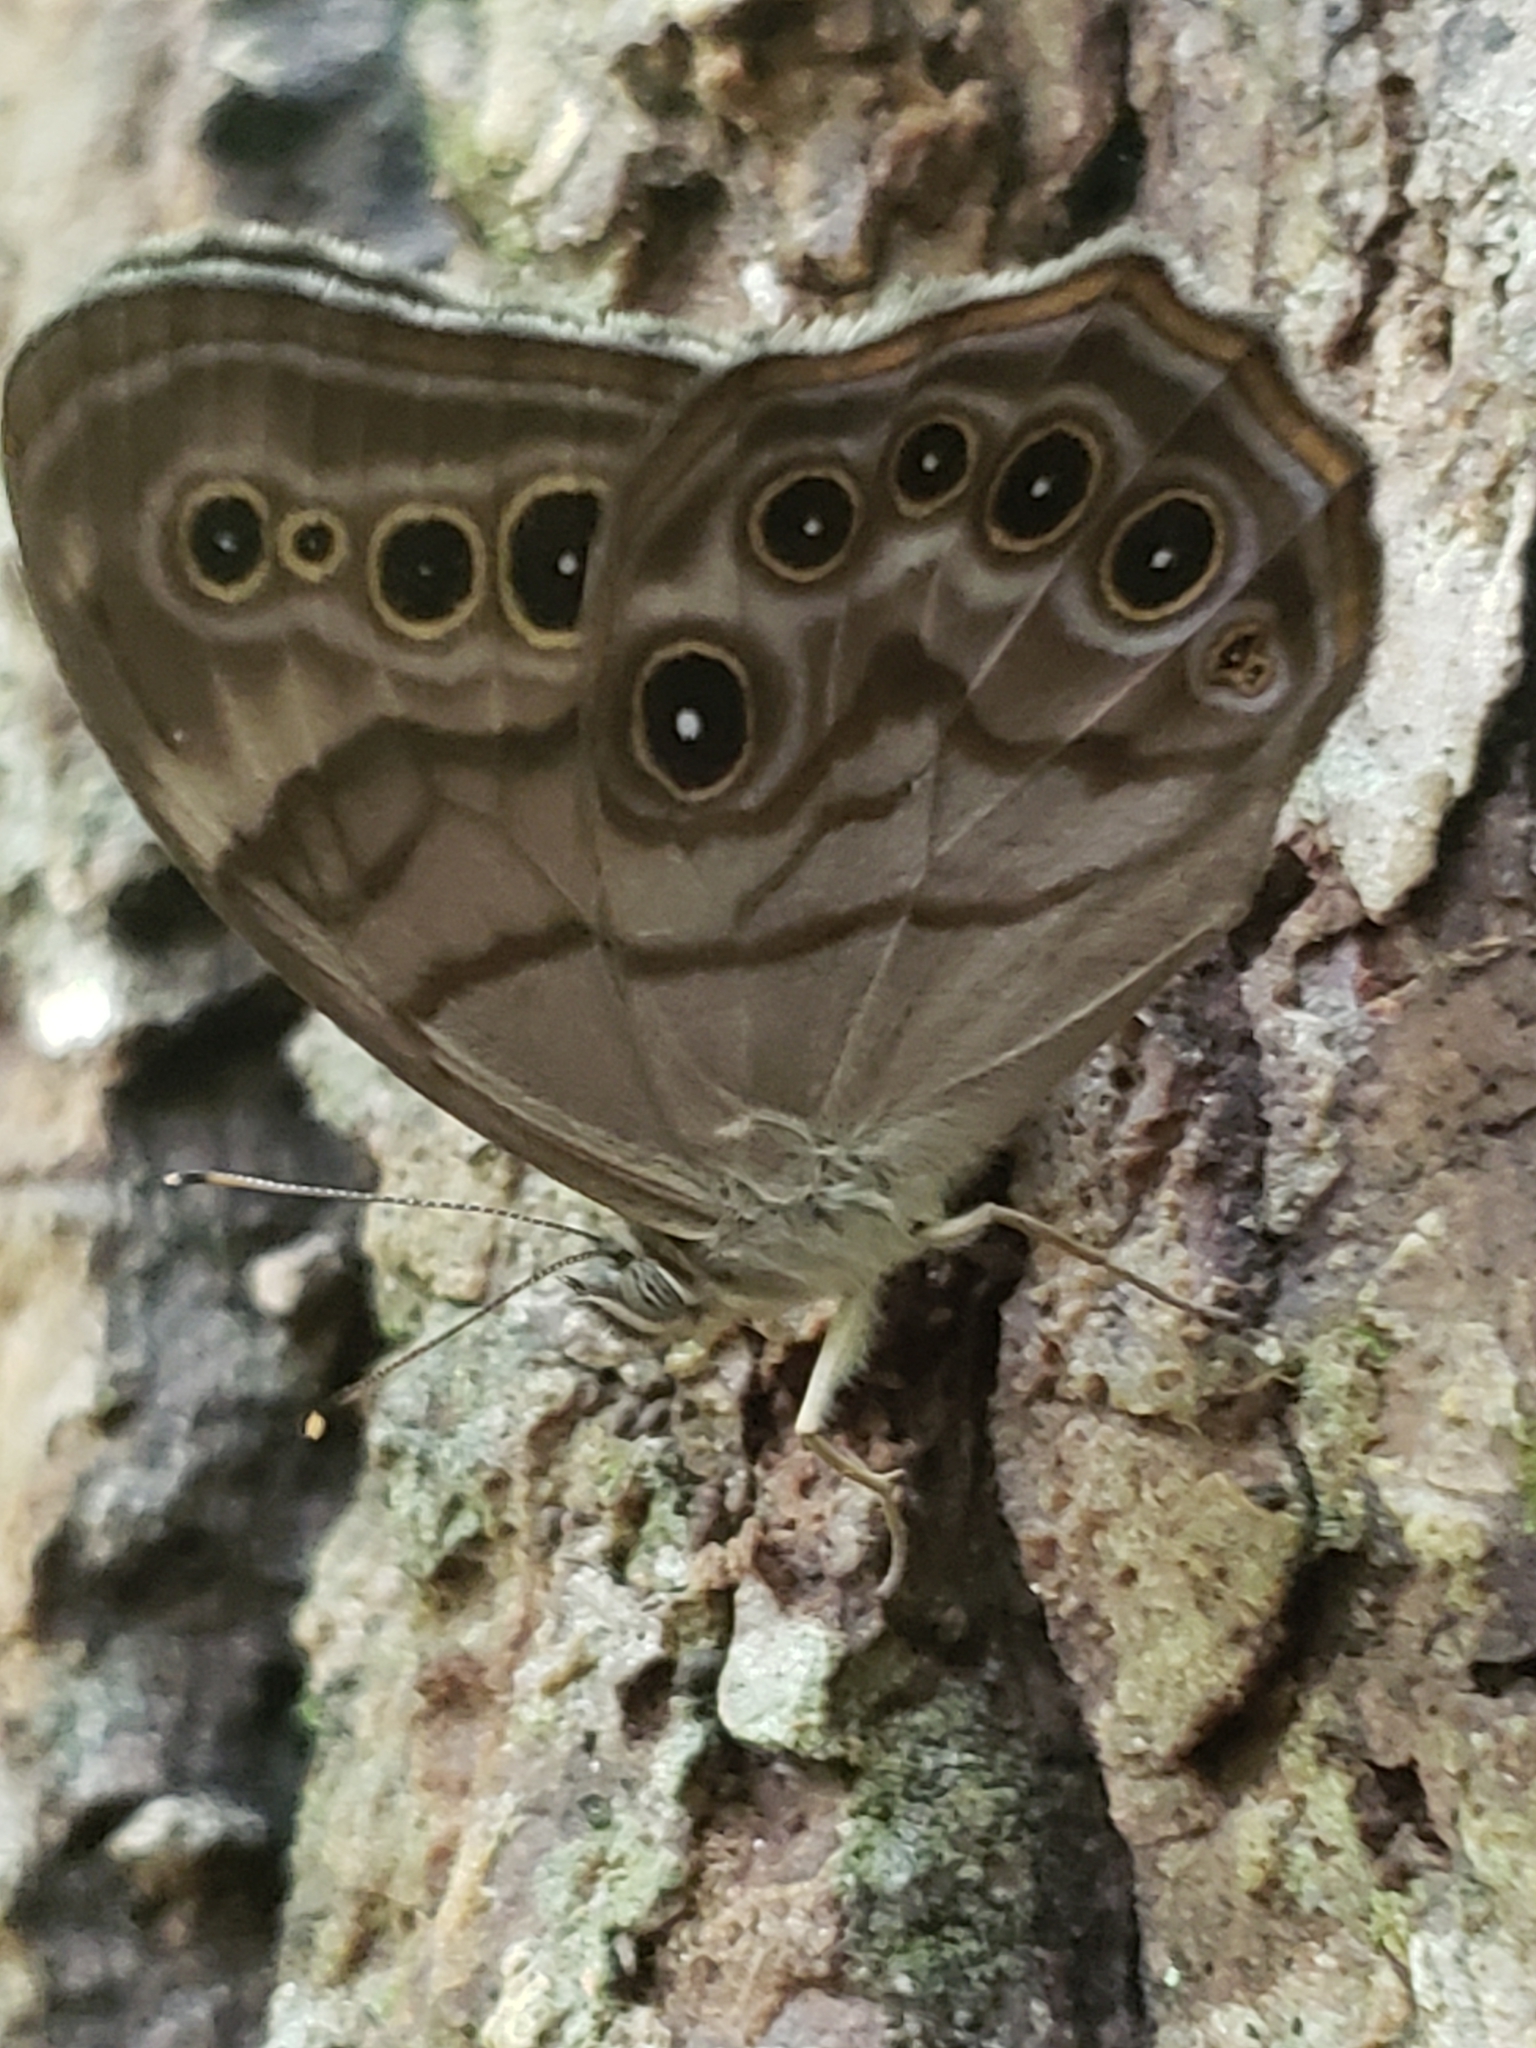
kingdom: Animalia
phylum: Arthropoda
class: Insecta
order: Lepidoptera
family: Nymphalidae
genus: Lethe
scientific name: Lethe anthedon
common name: Northern pearly-eye
